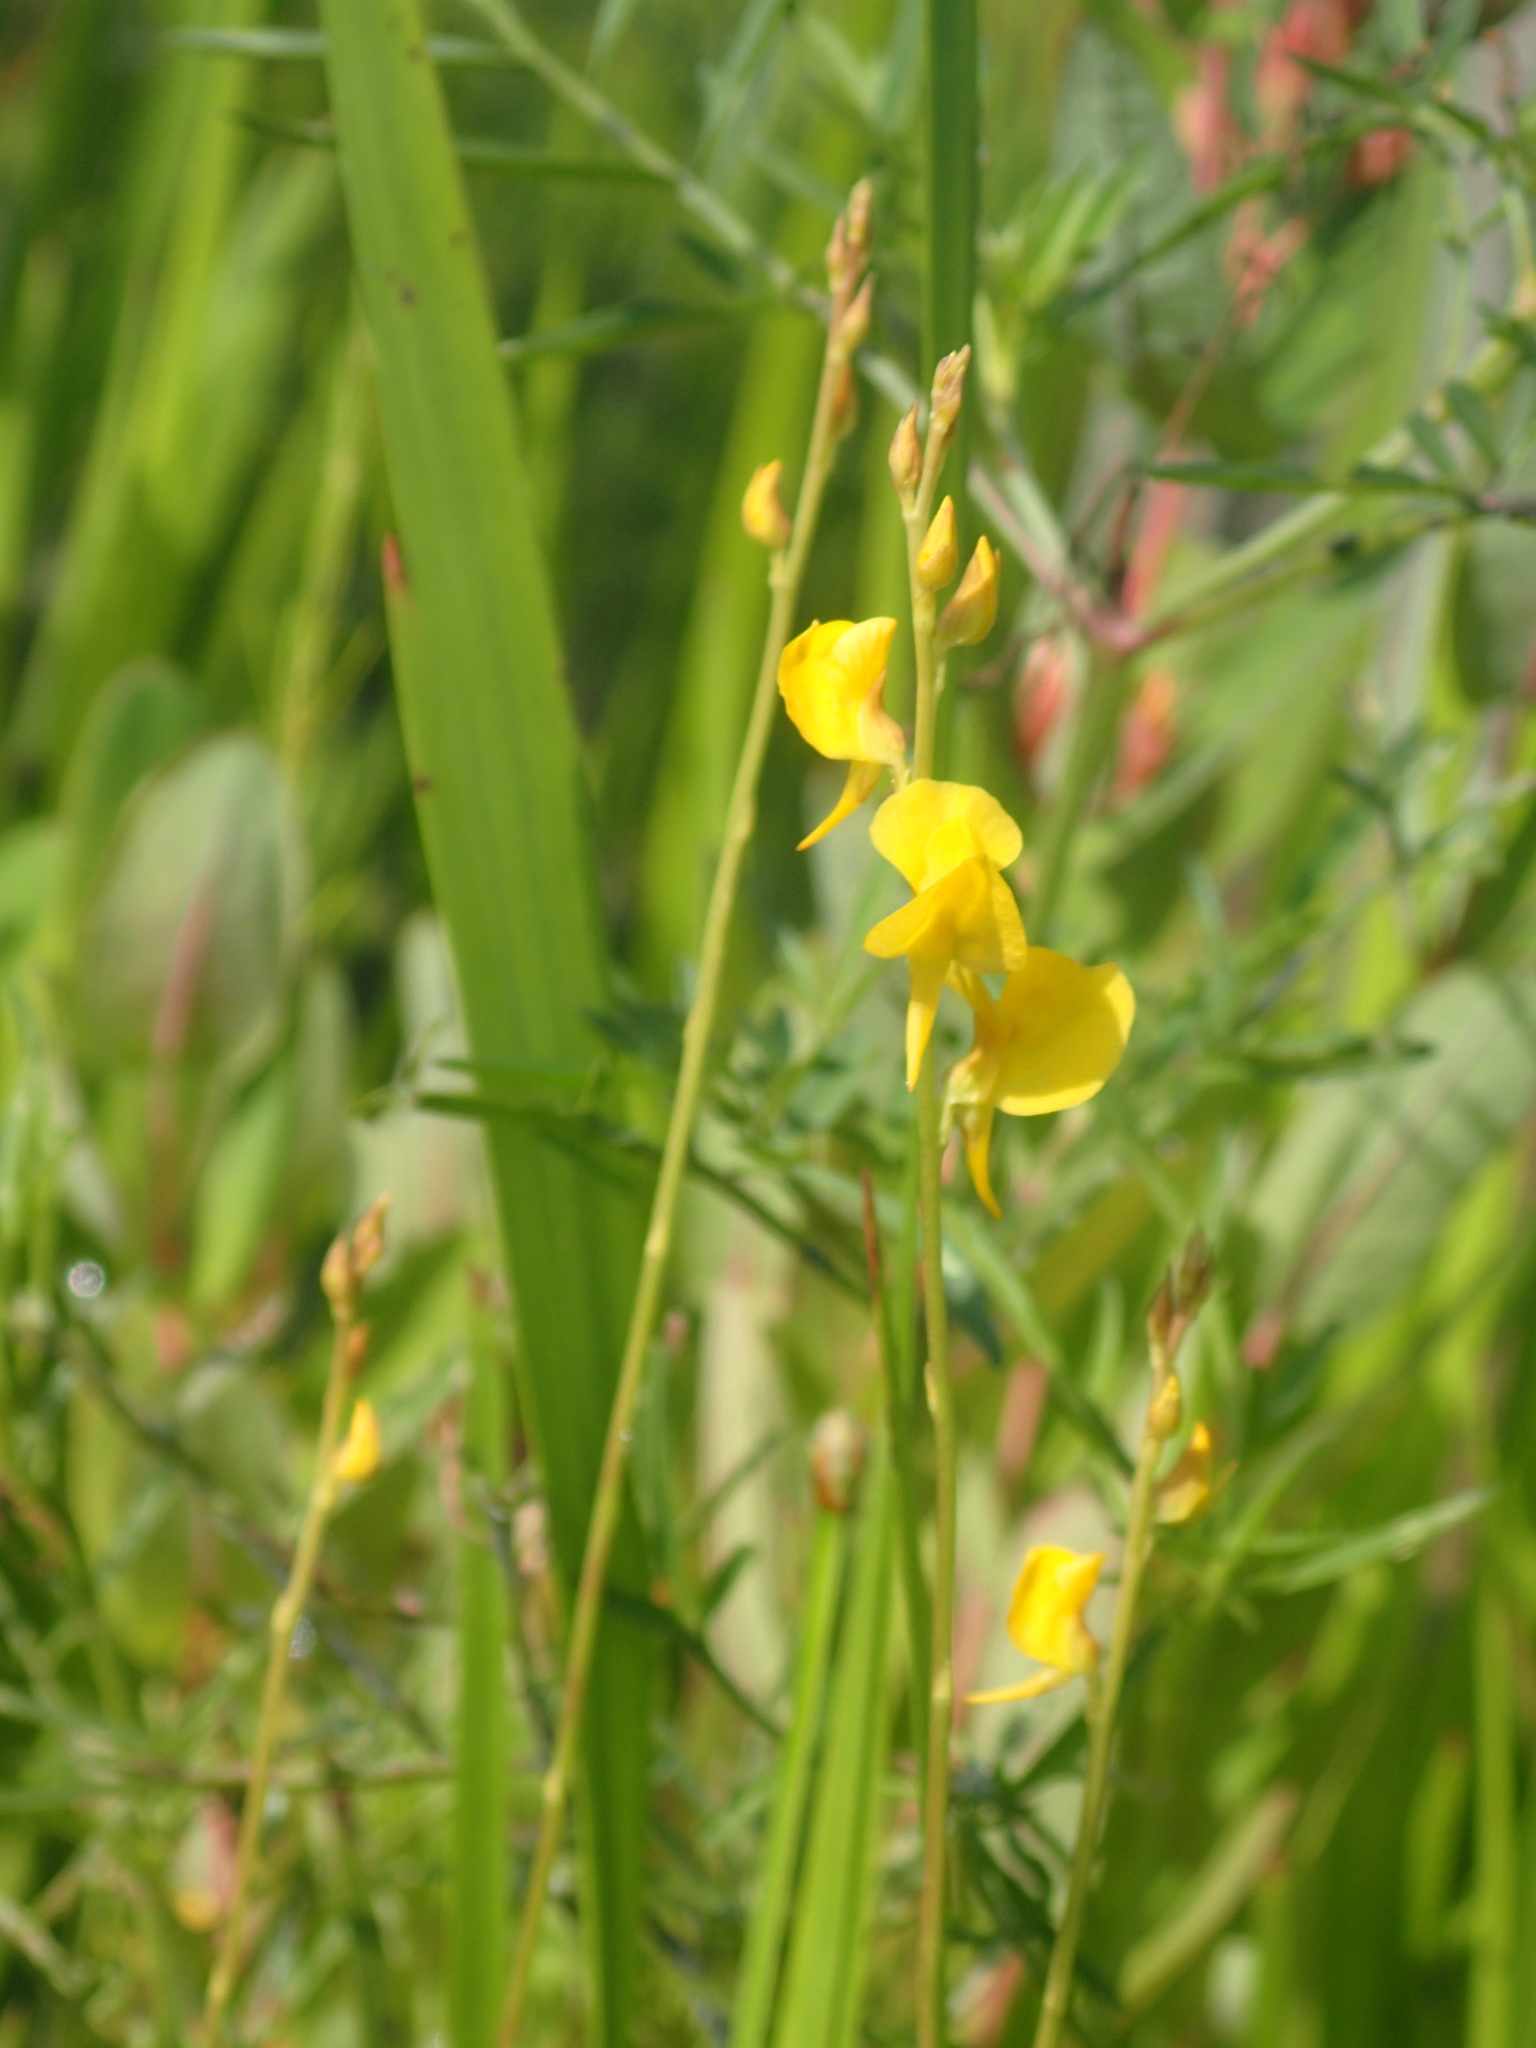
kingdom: Plantae
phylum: Tracheophyta
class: Magnoliopsida
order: Lamiales
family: Lentibulariaceae
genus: Utricularia
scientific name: Utricularia juncea
